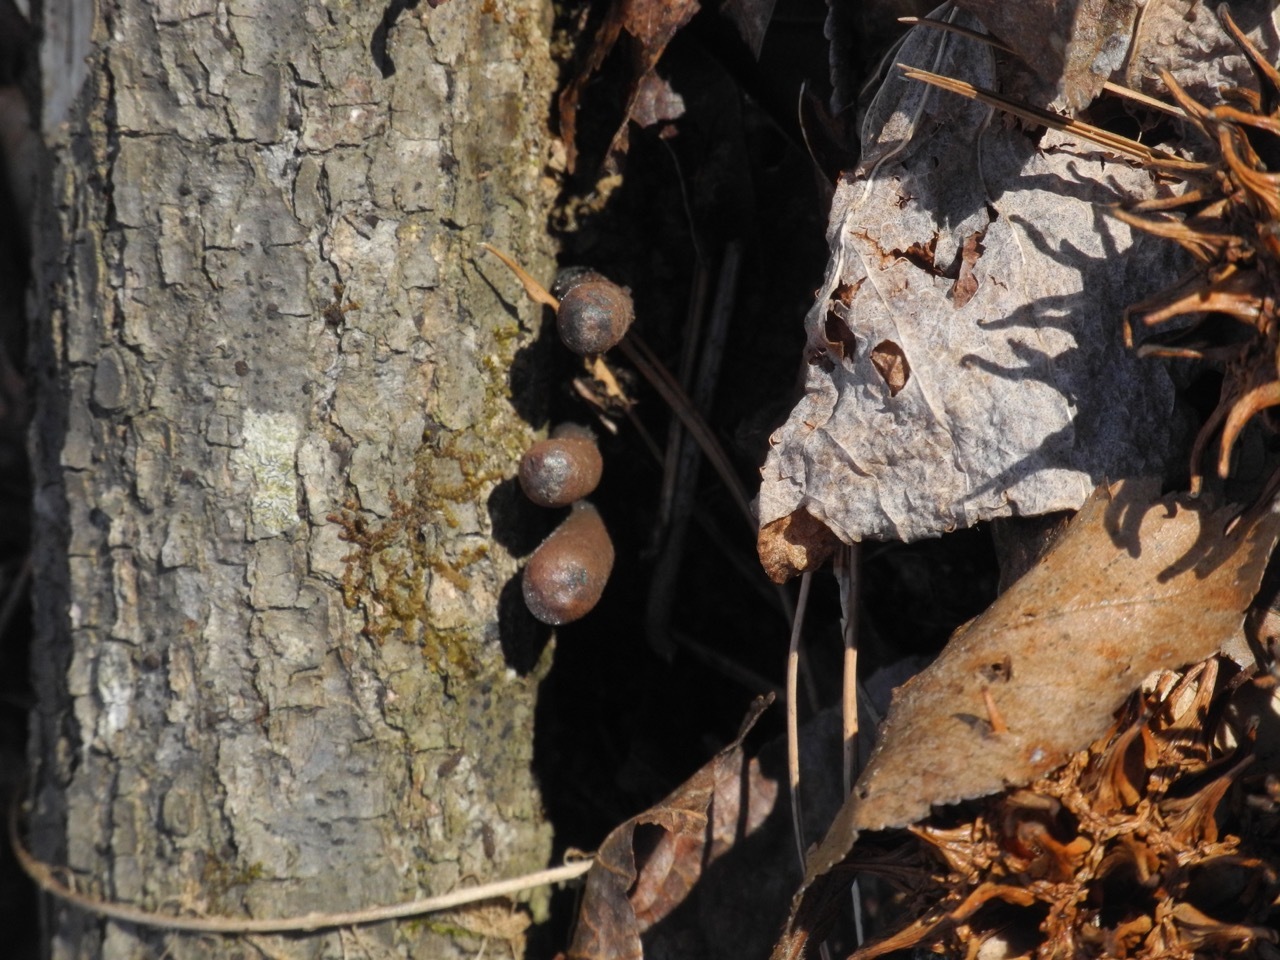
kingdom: Fungi
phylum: Ascomycota
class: Sordariomycetes
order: Xylariales
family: Xylariaceae
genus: Xylaria
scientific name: Xylaria polymorpha
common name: Dead man's fingers
